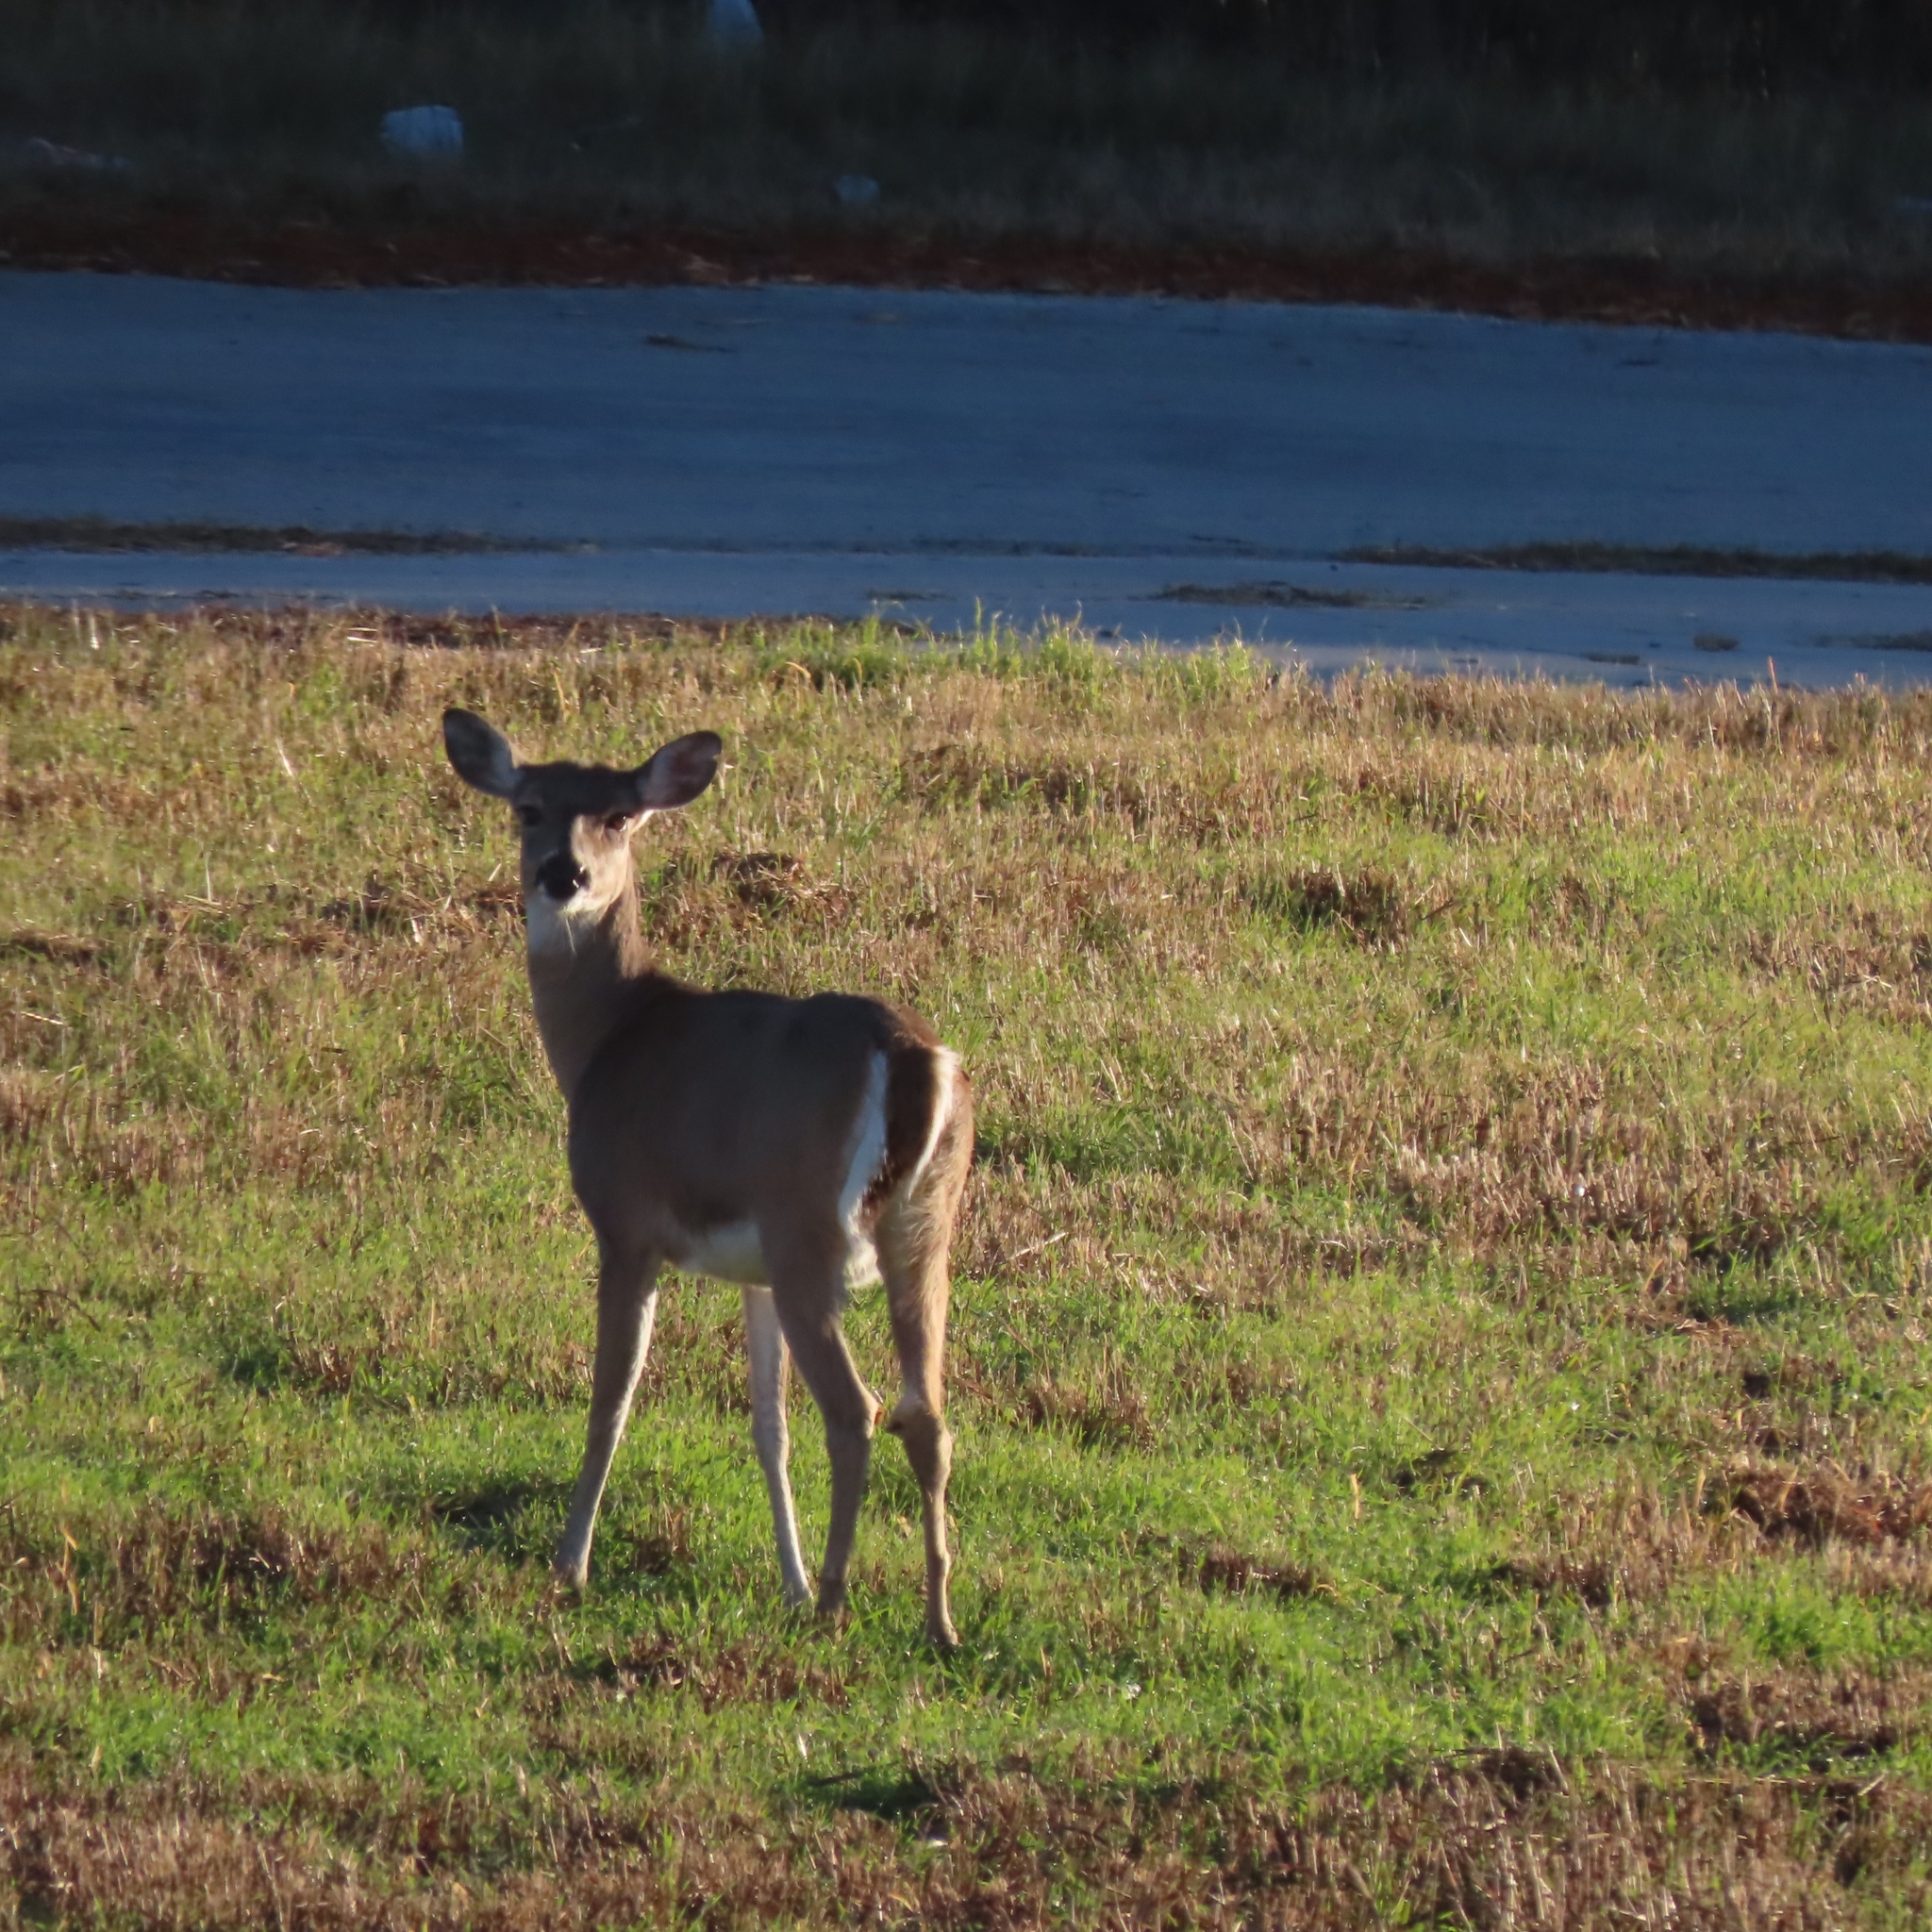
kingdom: Animalia
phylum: Chordata
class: Mammalia
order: Artiodactyla
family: Cervidae
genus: Odocoileus
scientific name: Odocoileus virginianus
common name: White-tailed deer
